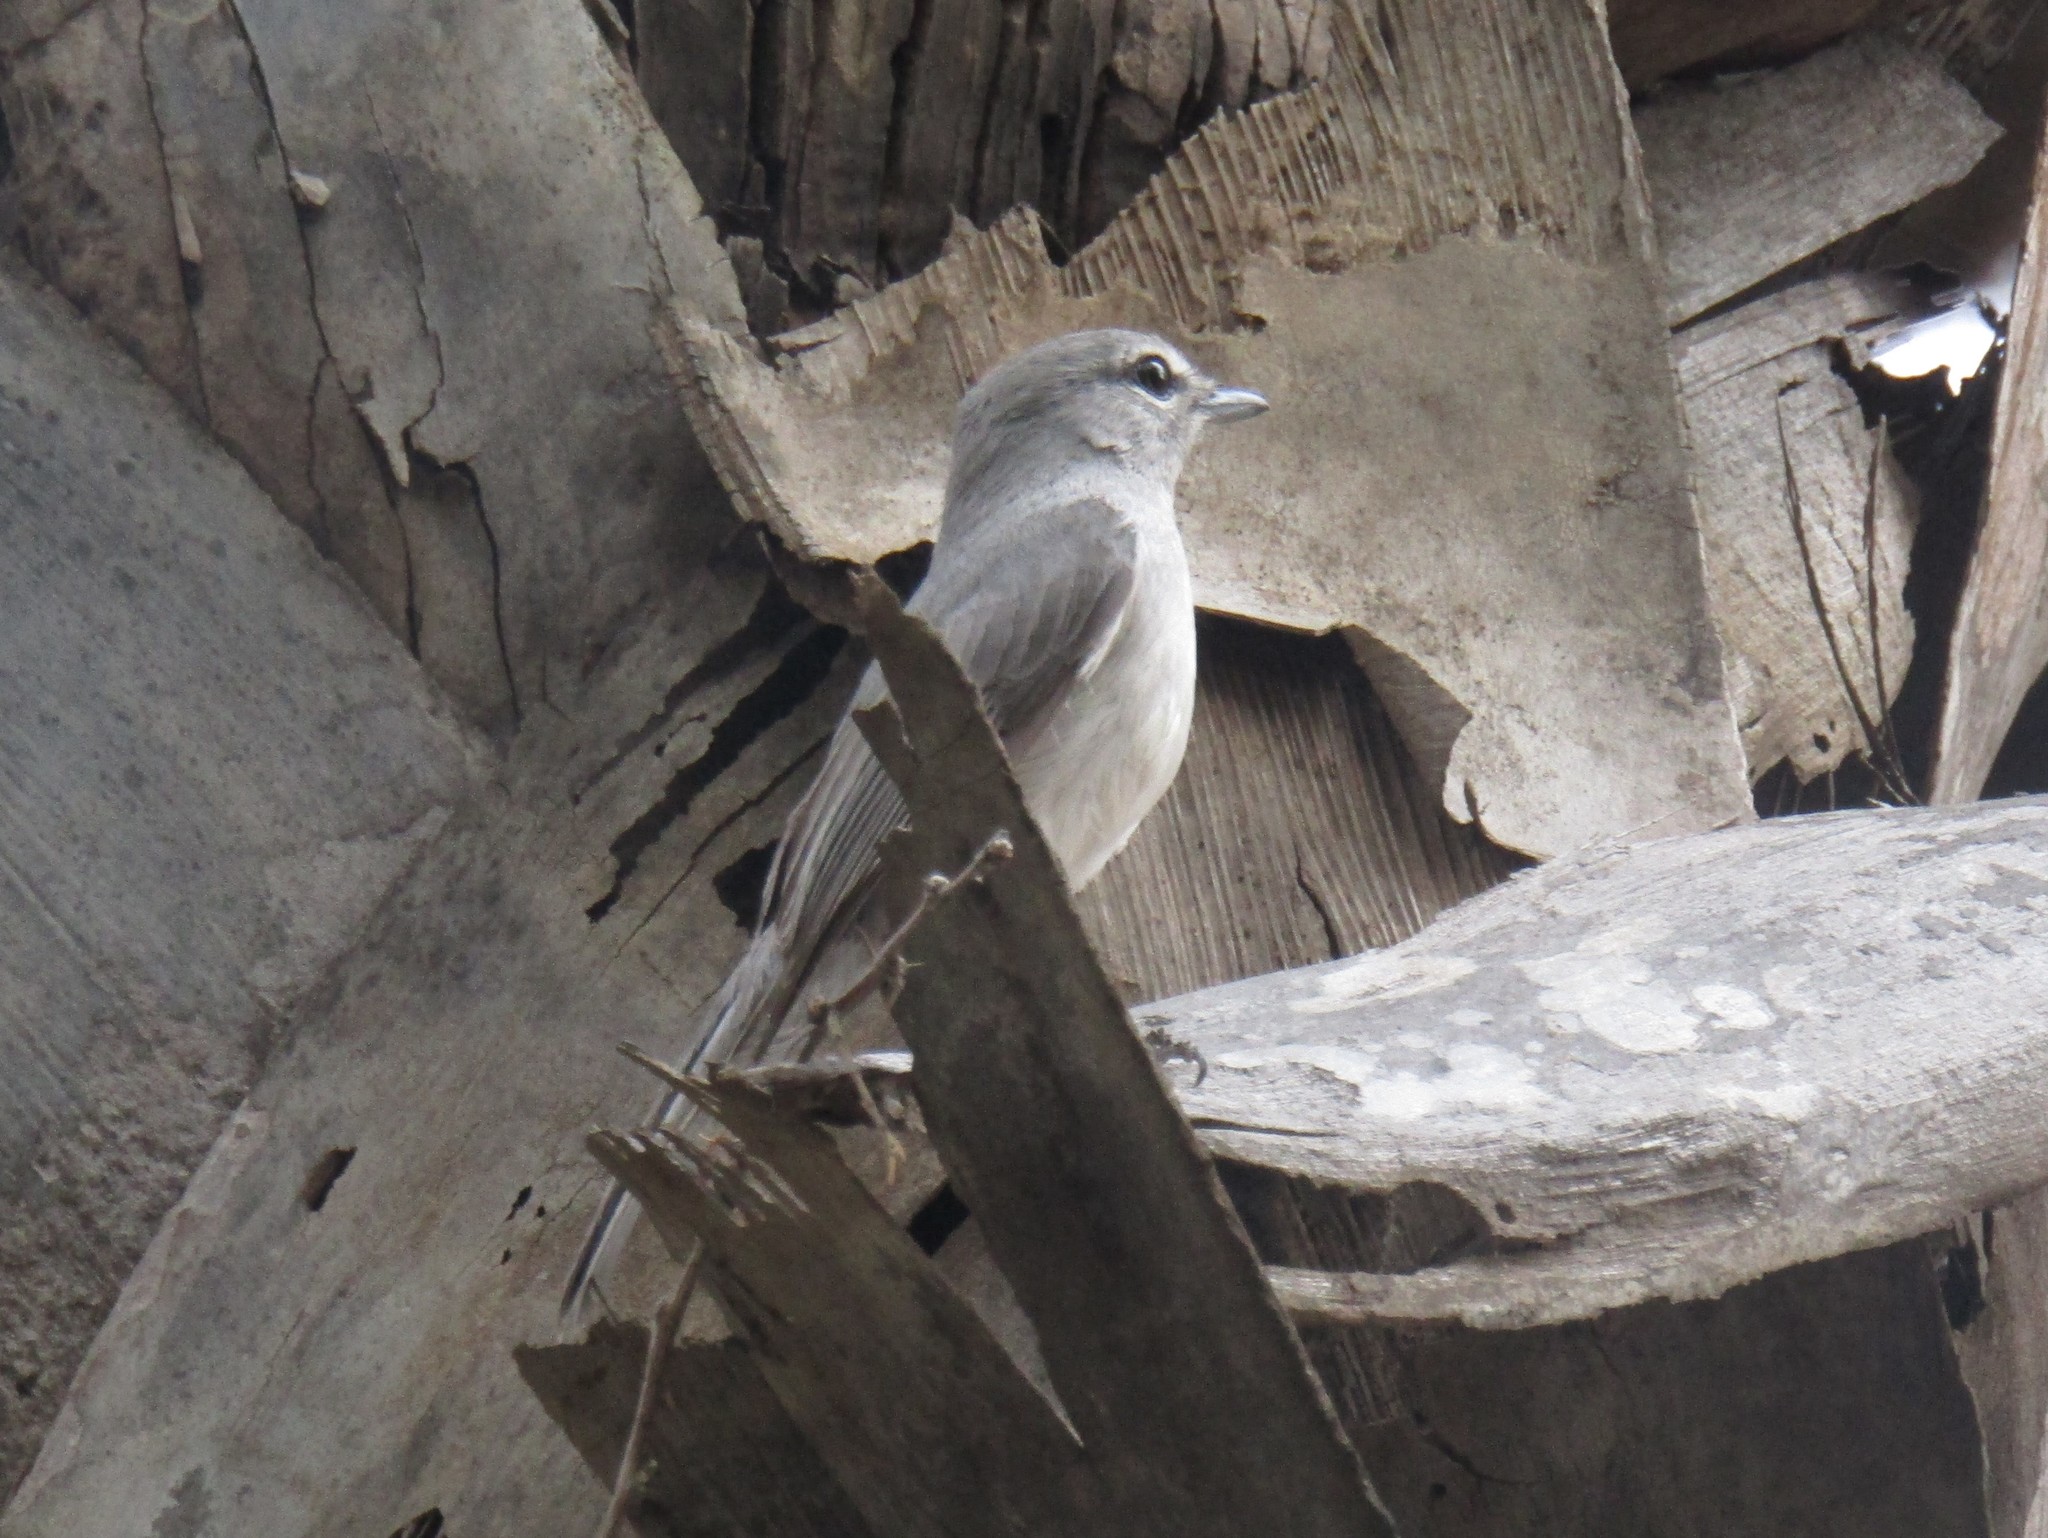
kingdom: Animalia
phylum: Chordata
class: Aves
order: Passeriformes
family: Muscicapidae
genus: Muscicapa
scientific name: Muscicapa caerulescens
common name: Ashy flycatcher
